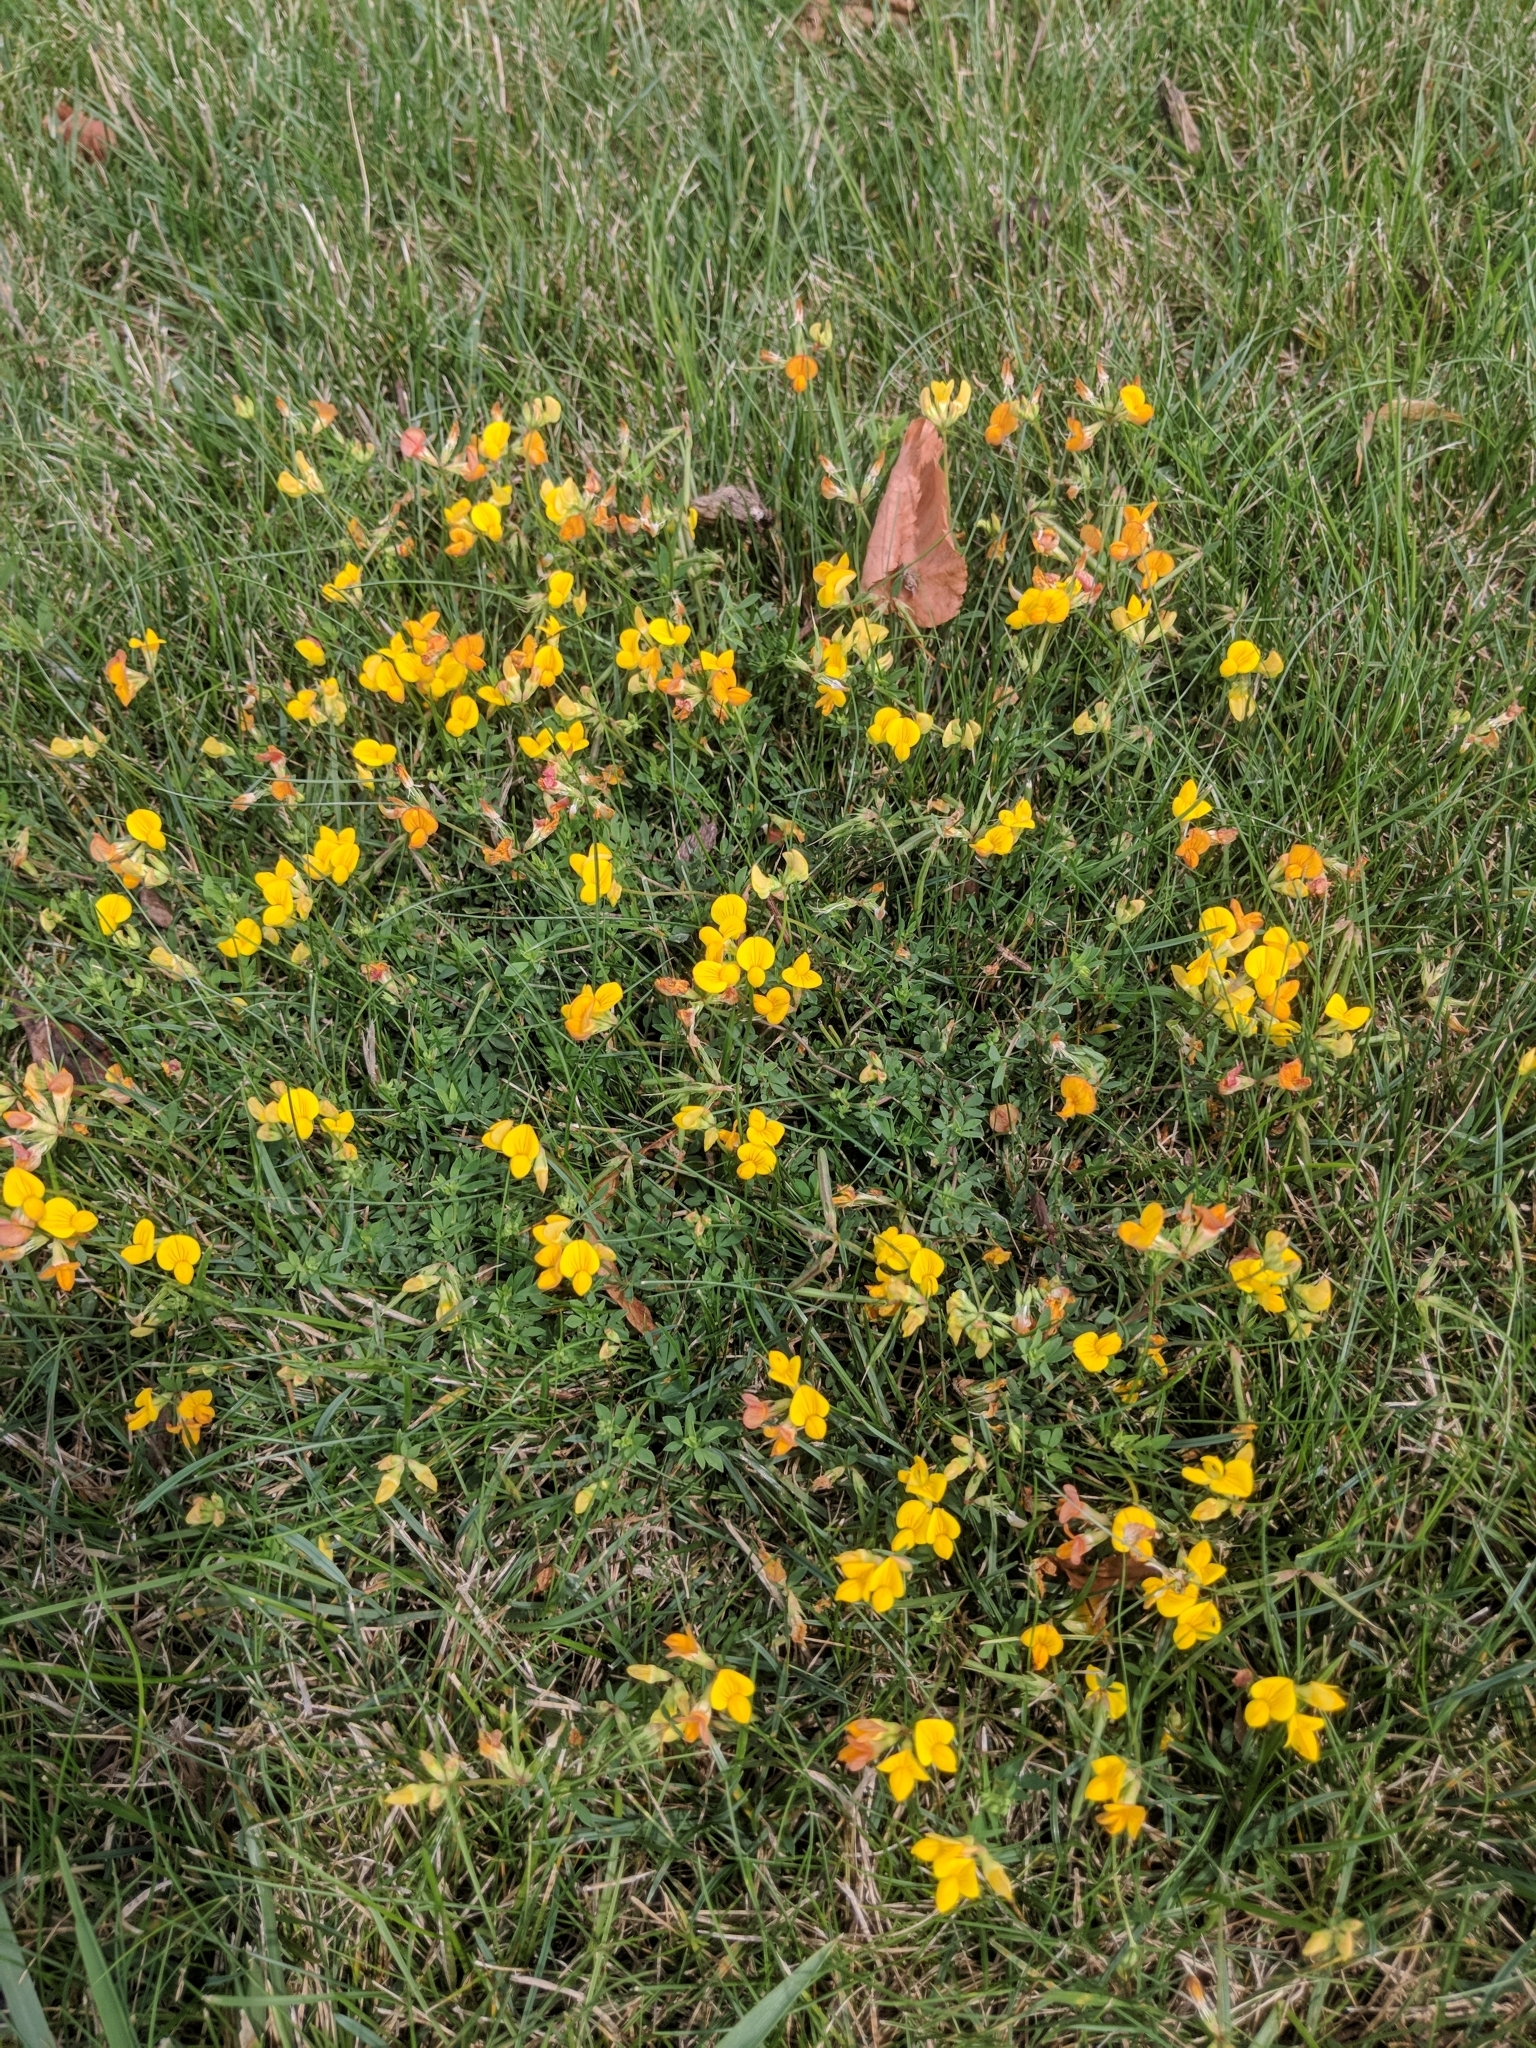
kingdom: Plantae
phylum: Tracheophyta
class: Magnoliopsida
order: Fabales
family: Fabaceae
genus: Lotus
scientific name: Lotus corniculatus
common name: Common bird's-foot-trefoil
